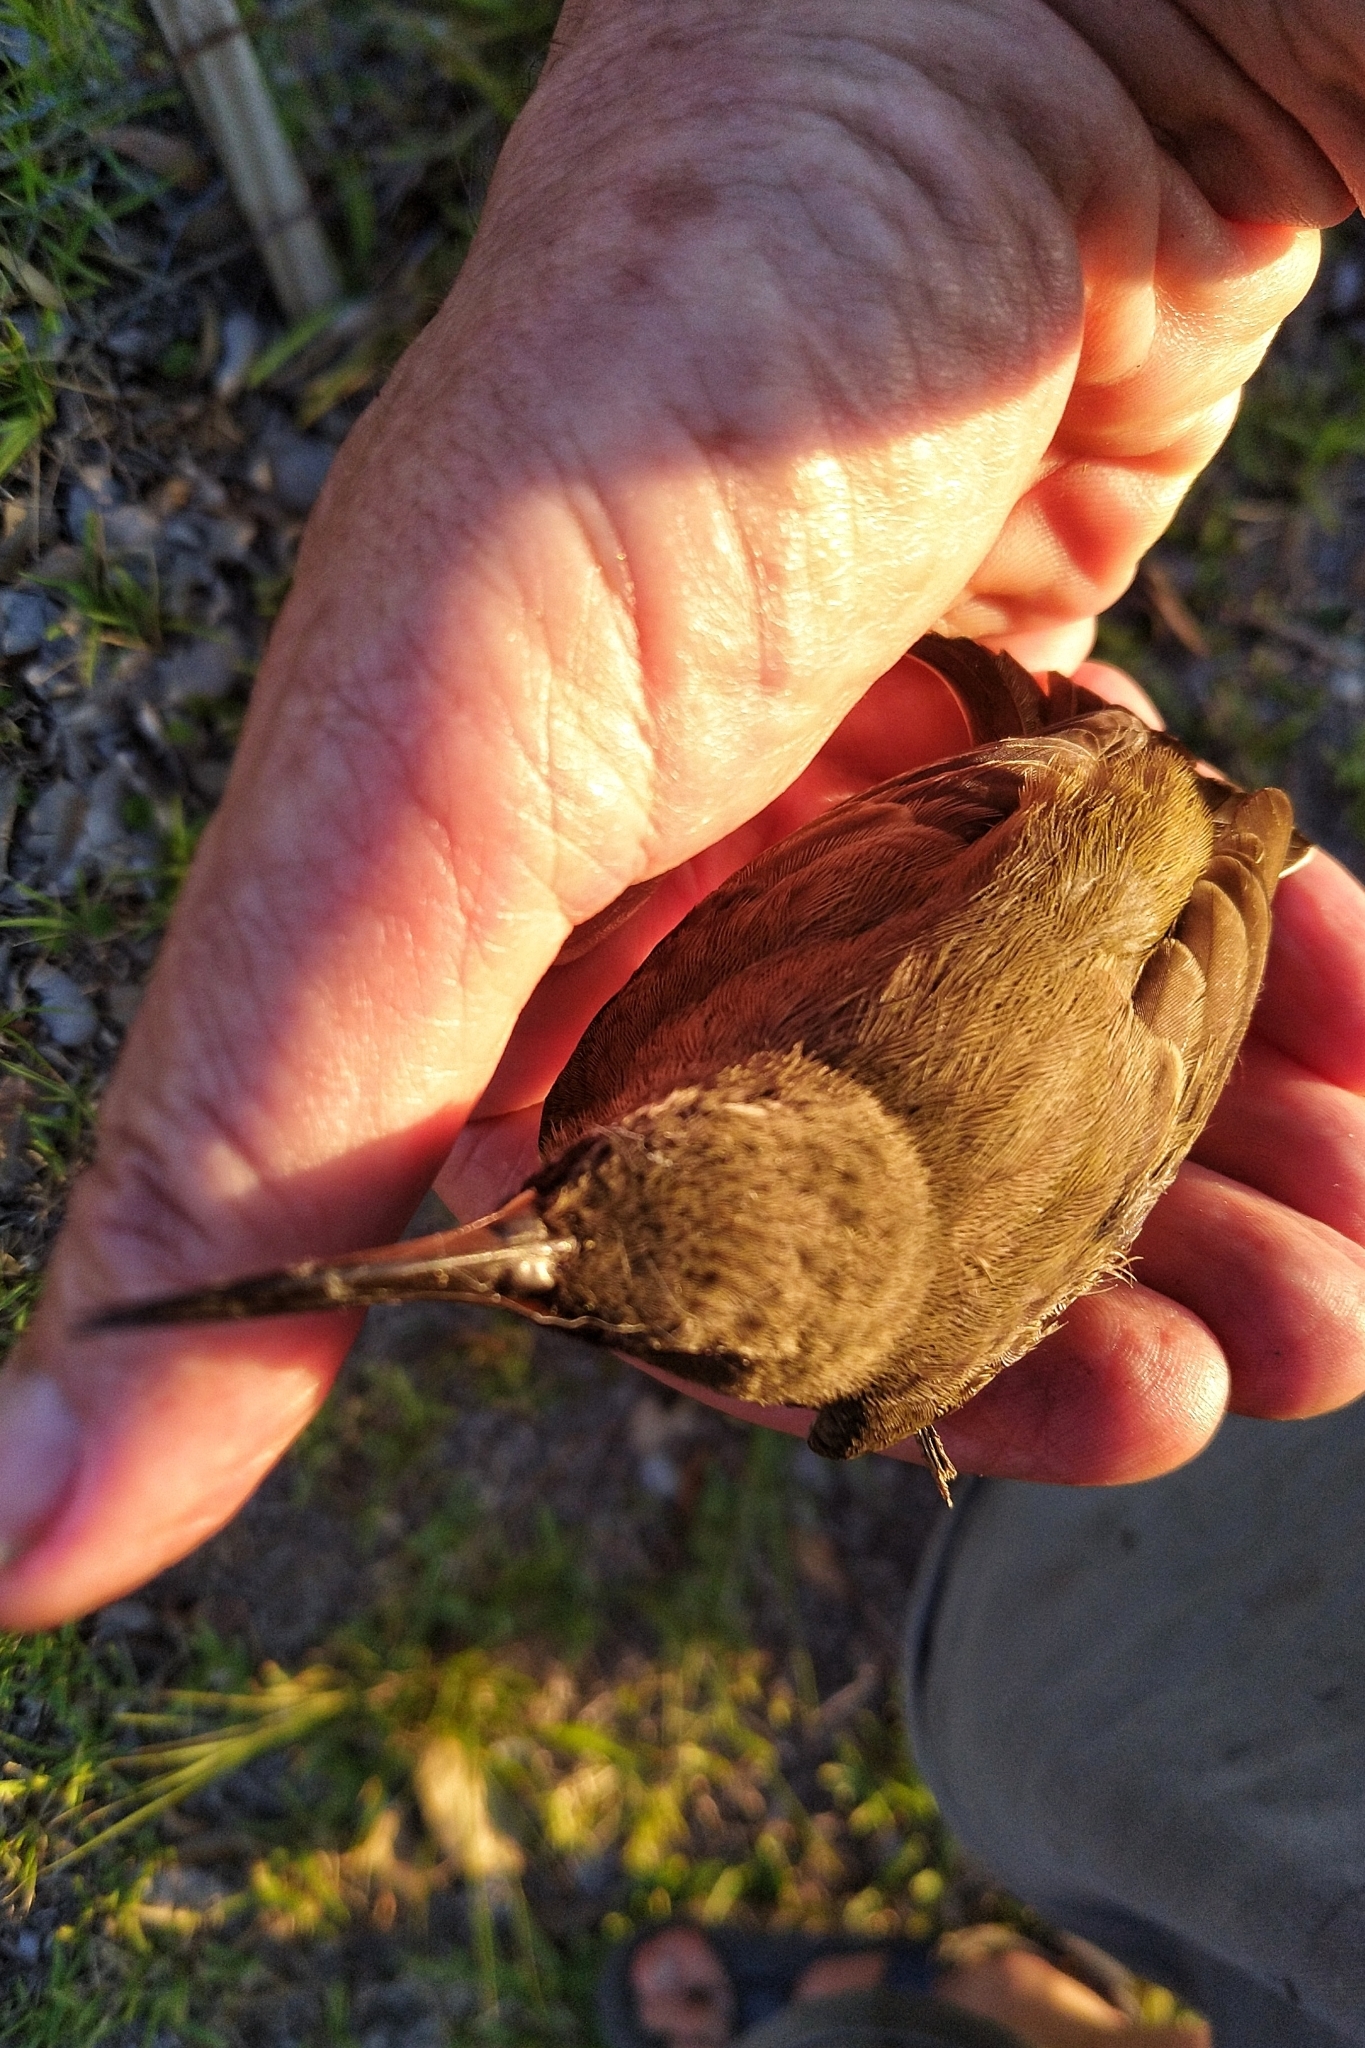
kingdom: Animalia
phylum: Chordata
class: Aves
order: Passeriformes
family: Nectariniidae
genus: Chalcomitra
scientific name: Chalcomitra amethystina
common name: Amethyst sunbird
